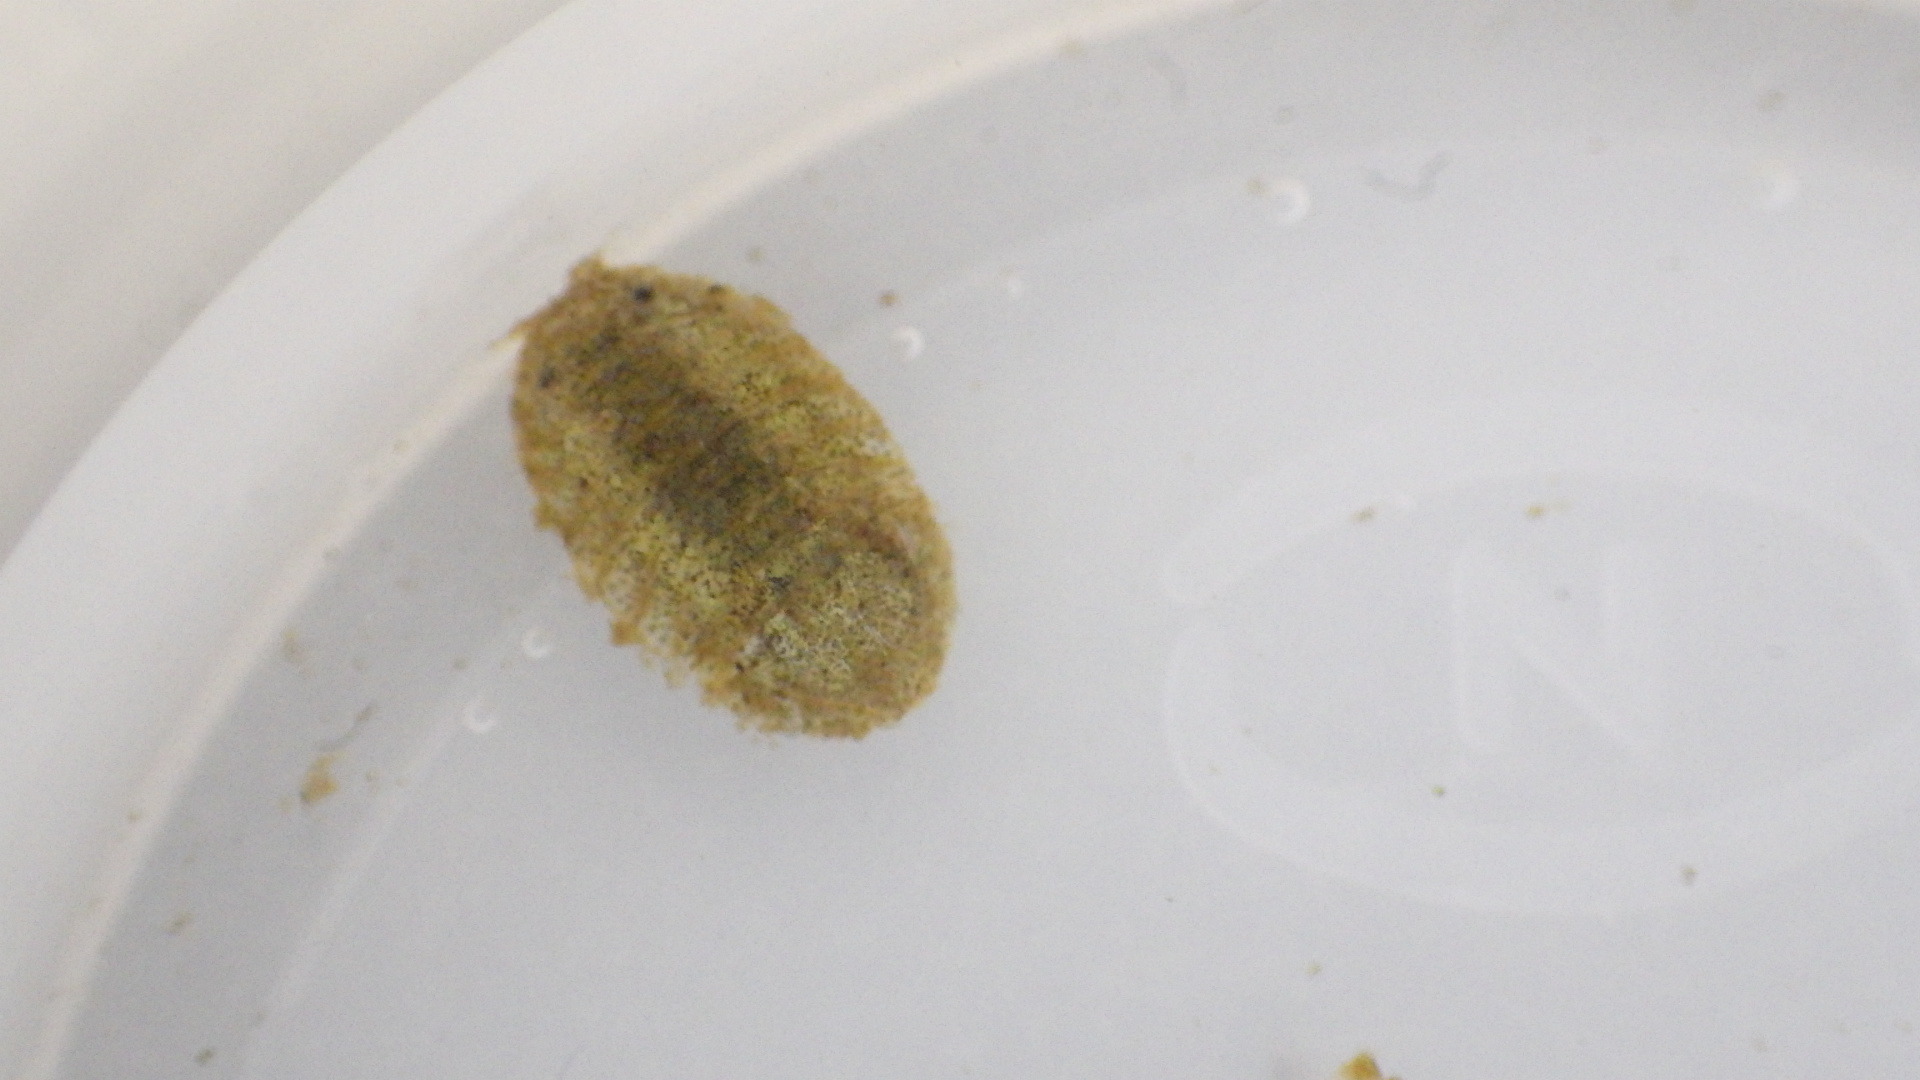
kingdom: Animalia
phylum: Arthropoda
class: Malacostraca
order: Isopoda
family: Sphaeromatidae
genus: Cassidinidea
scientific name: Cassidinidea ovalis
